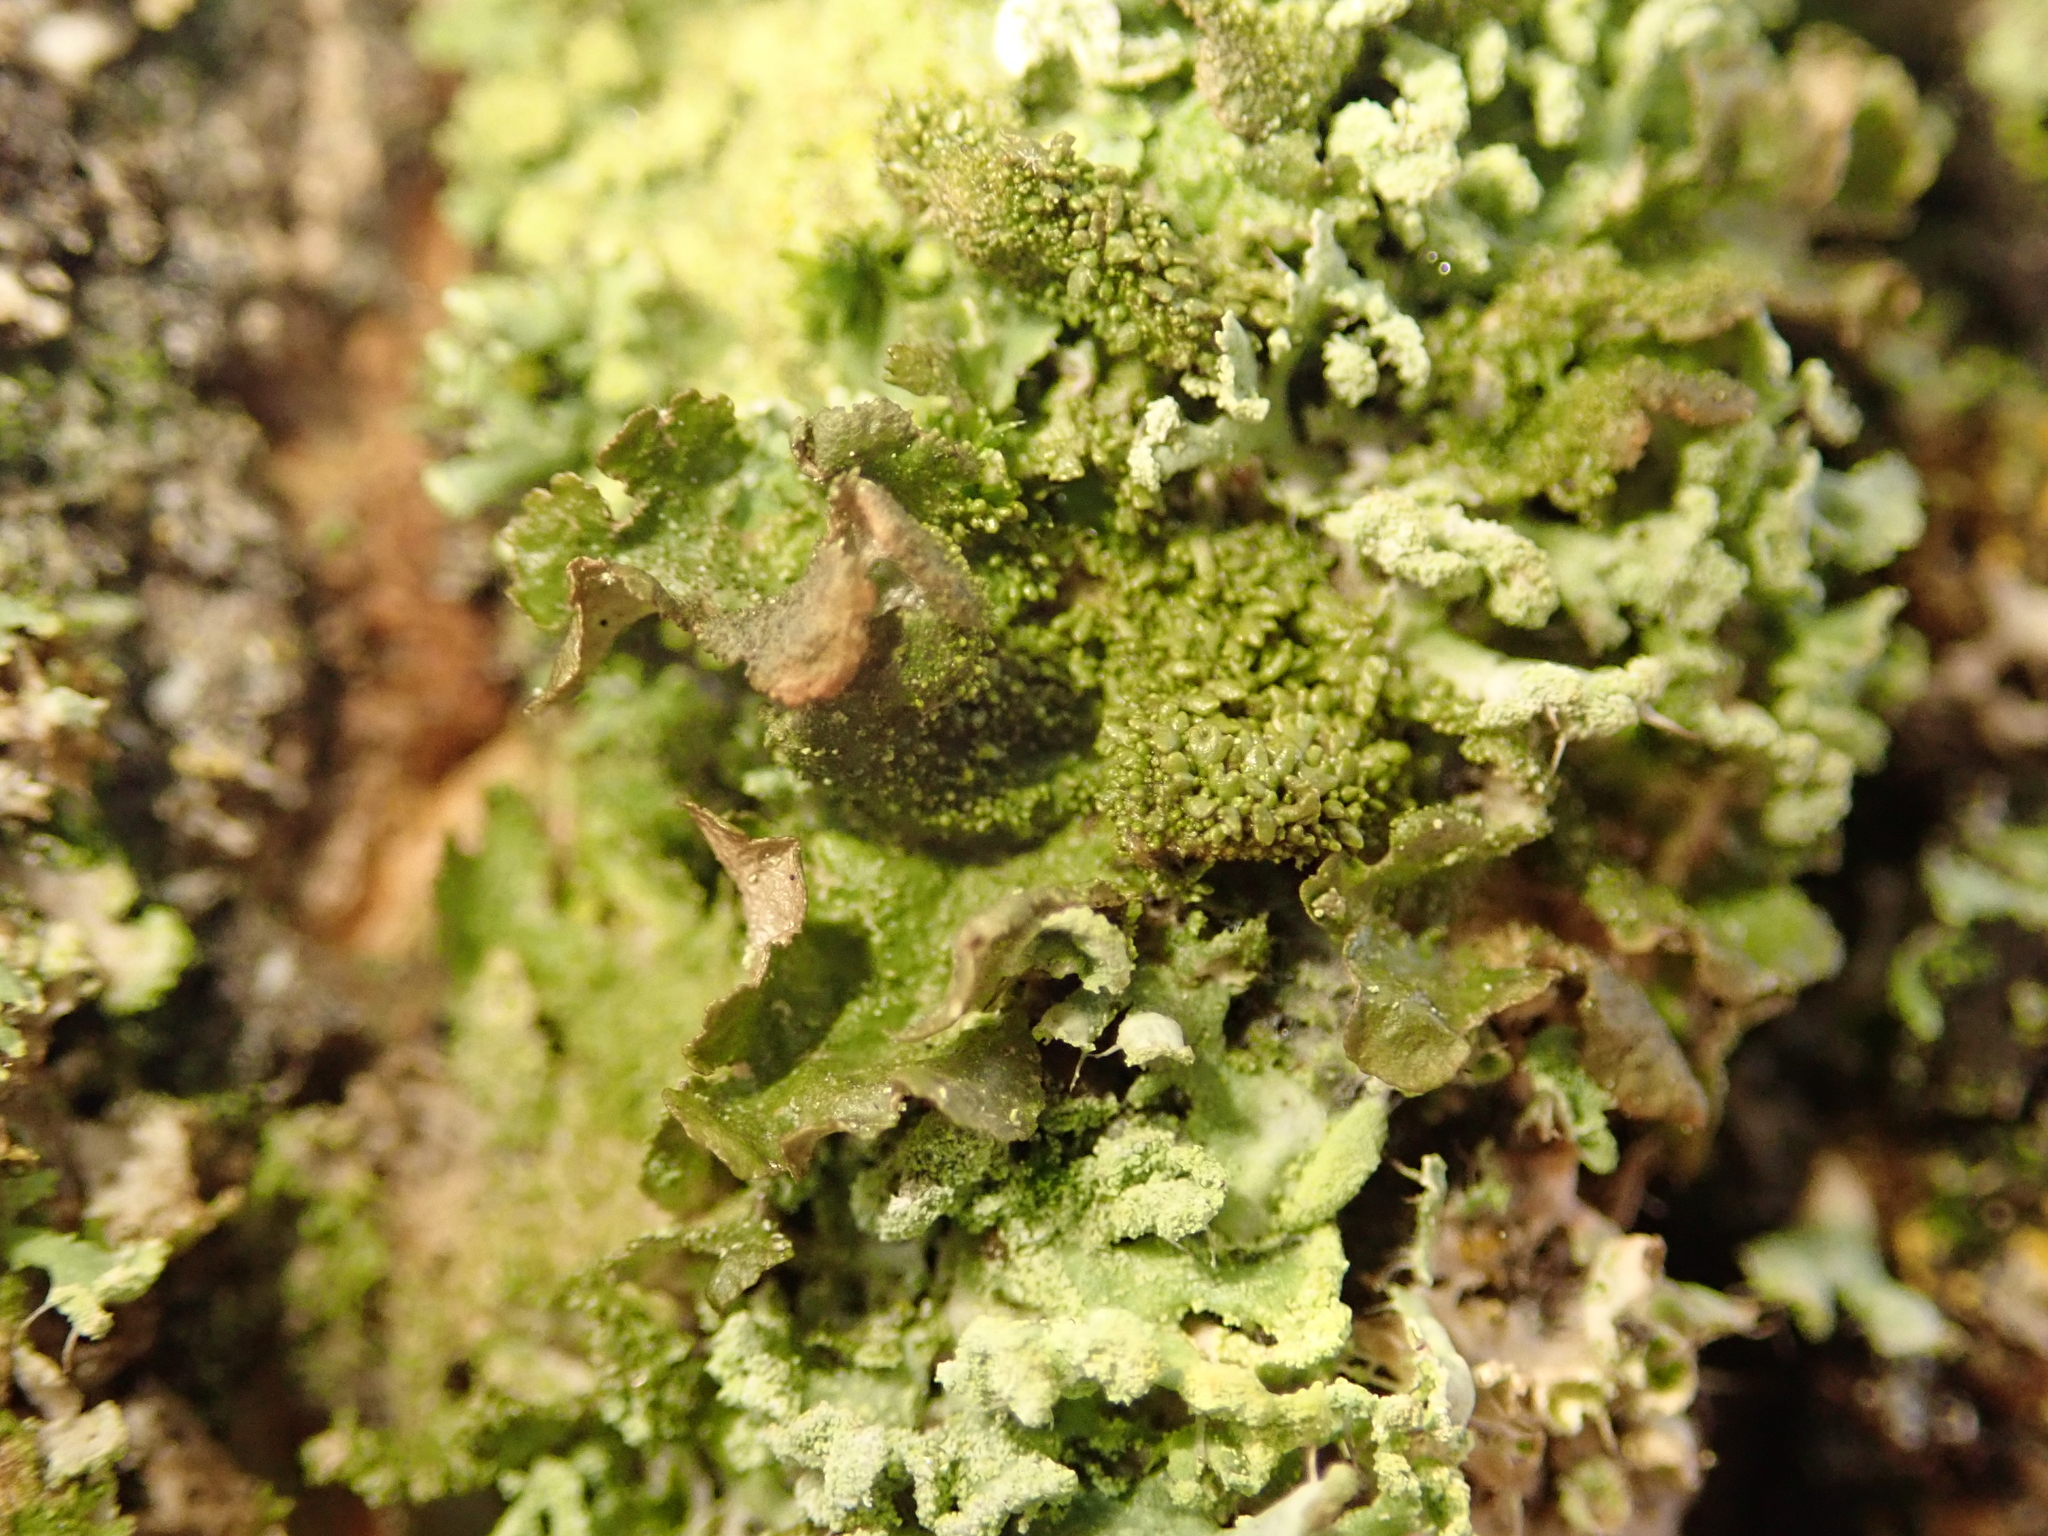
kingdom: Fungi
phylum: Ascomycota
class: Lecanoromycetes
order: Lecanorales
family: Parmeliaceae
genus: Melanohalea
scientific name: Melanohalea exasperatula
